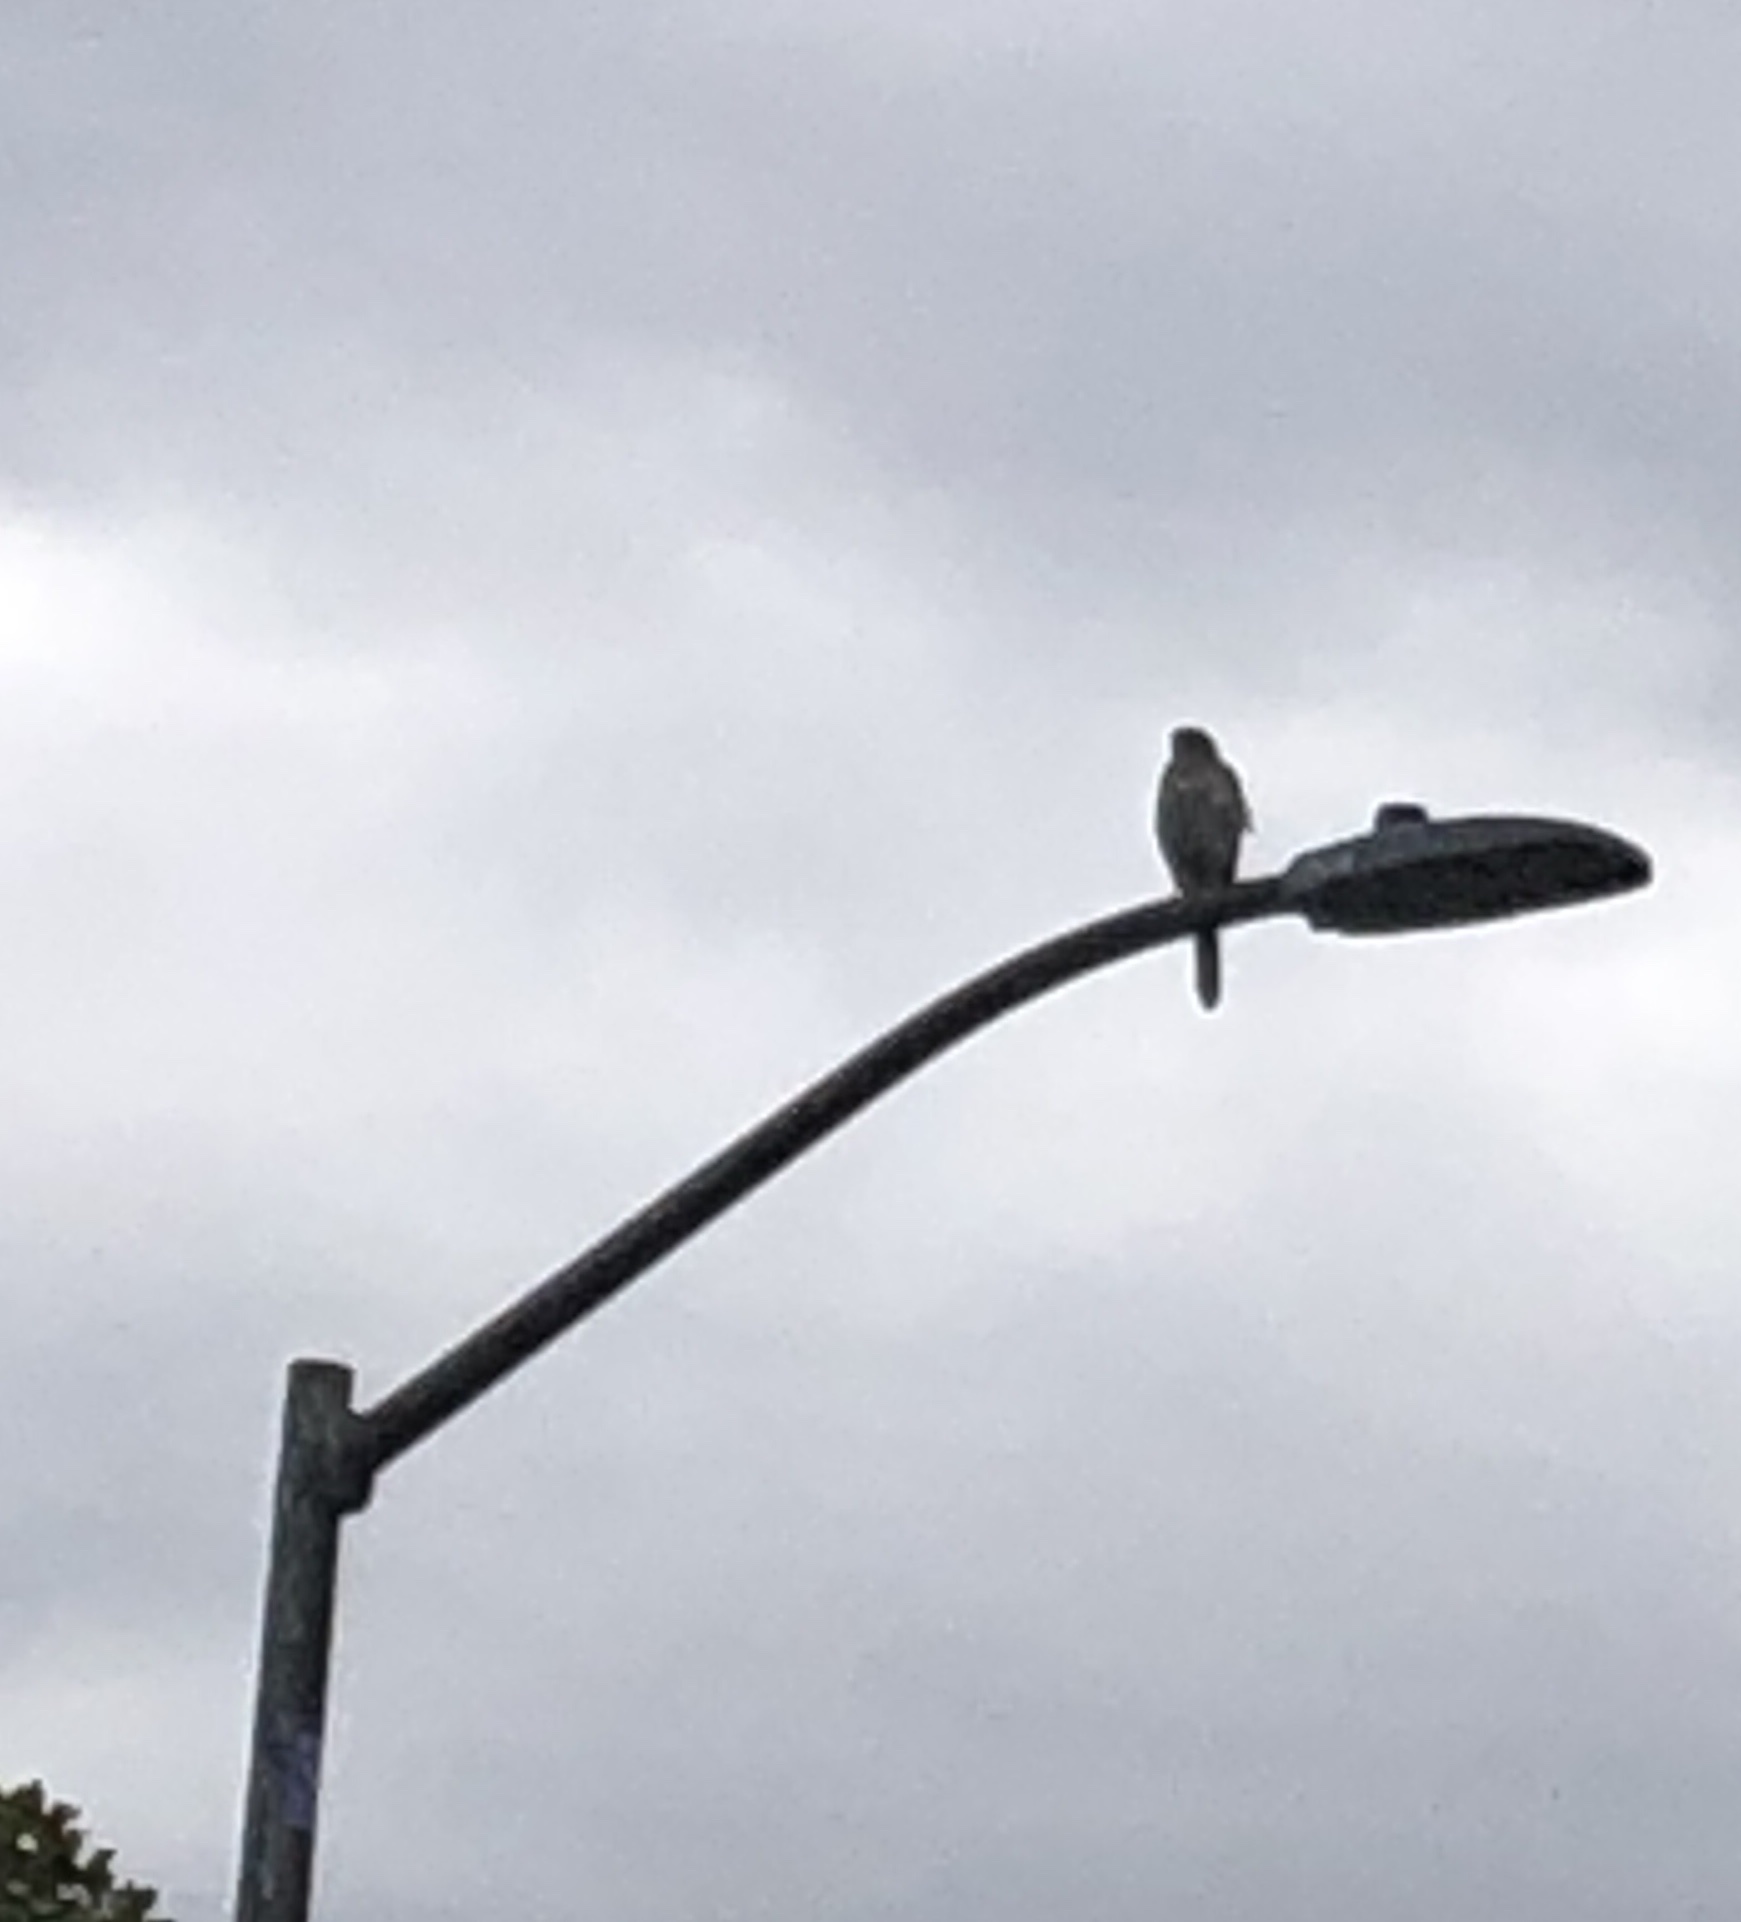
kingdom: Animalia
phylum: Chordata
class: Aves
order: Accipitriformes
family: Accipitridae
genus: Accipiter
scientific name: Accipiter cooperii
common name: Cooper's hawk
